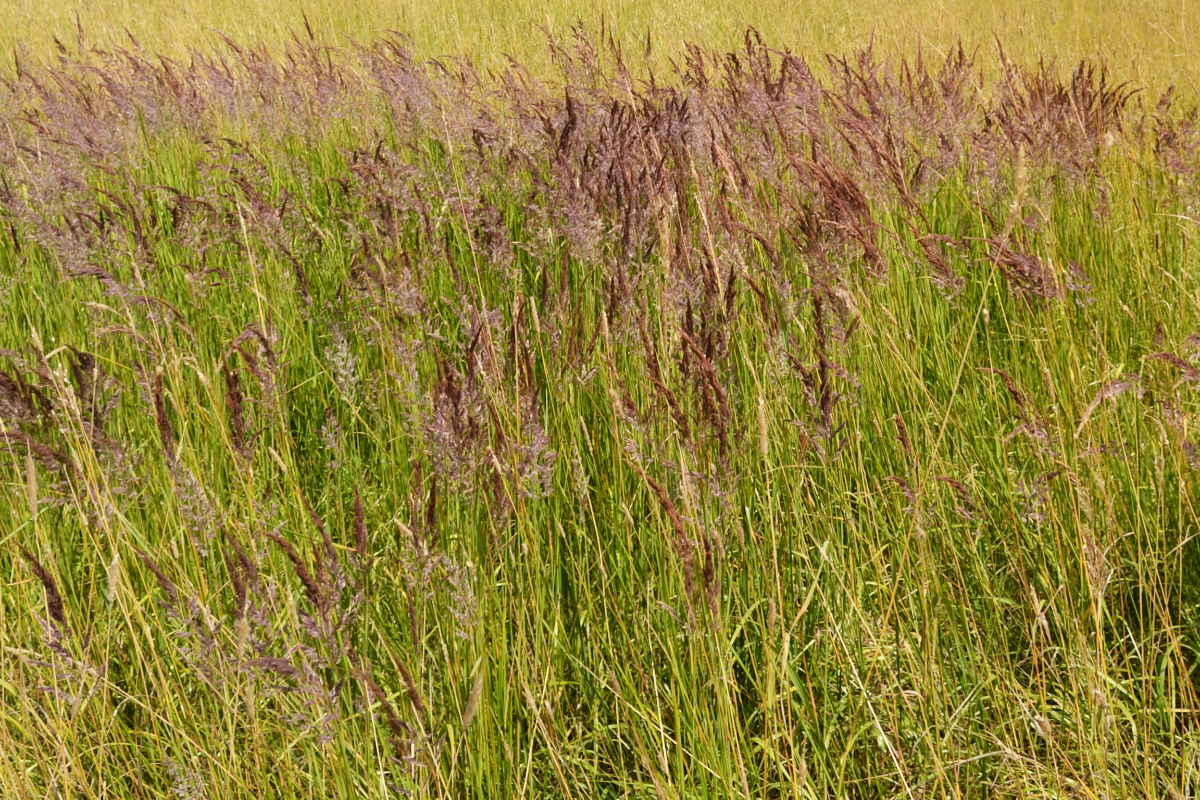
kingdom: Plantae
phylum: Tracheophyta
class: Liliopsida
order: Poales
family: Poaceae
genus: Calamagrostis
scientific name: Calamagrostis epigejos
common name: Wood small-reed
